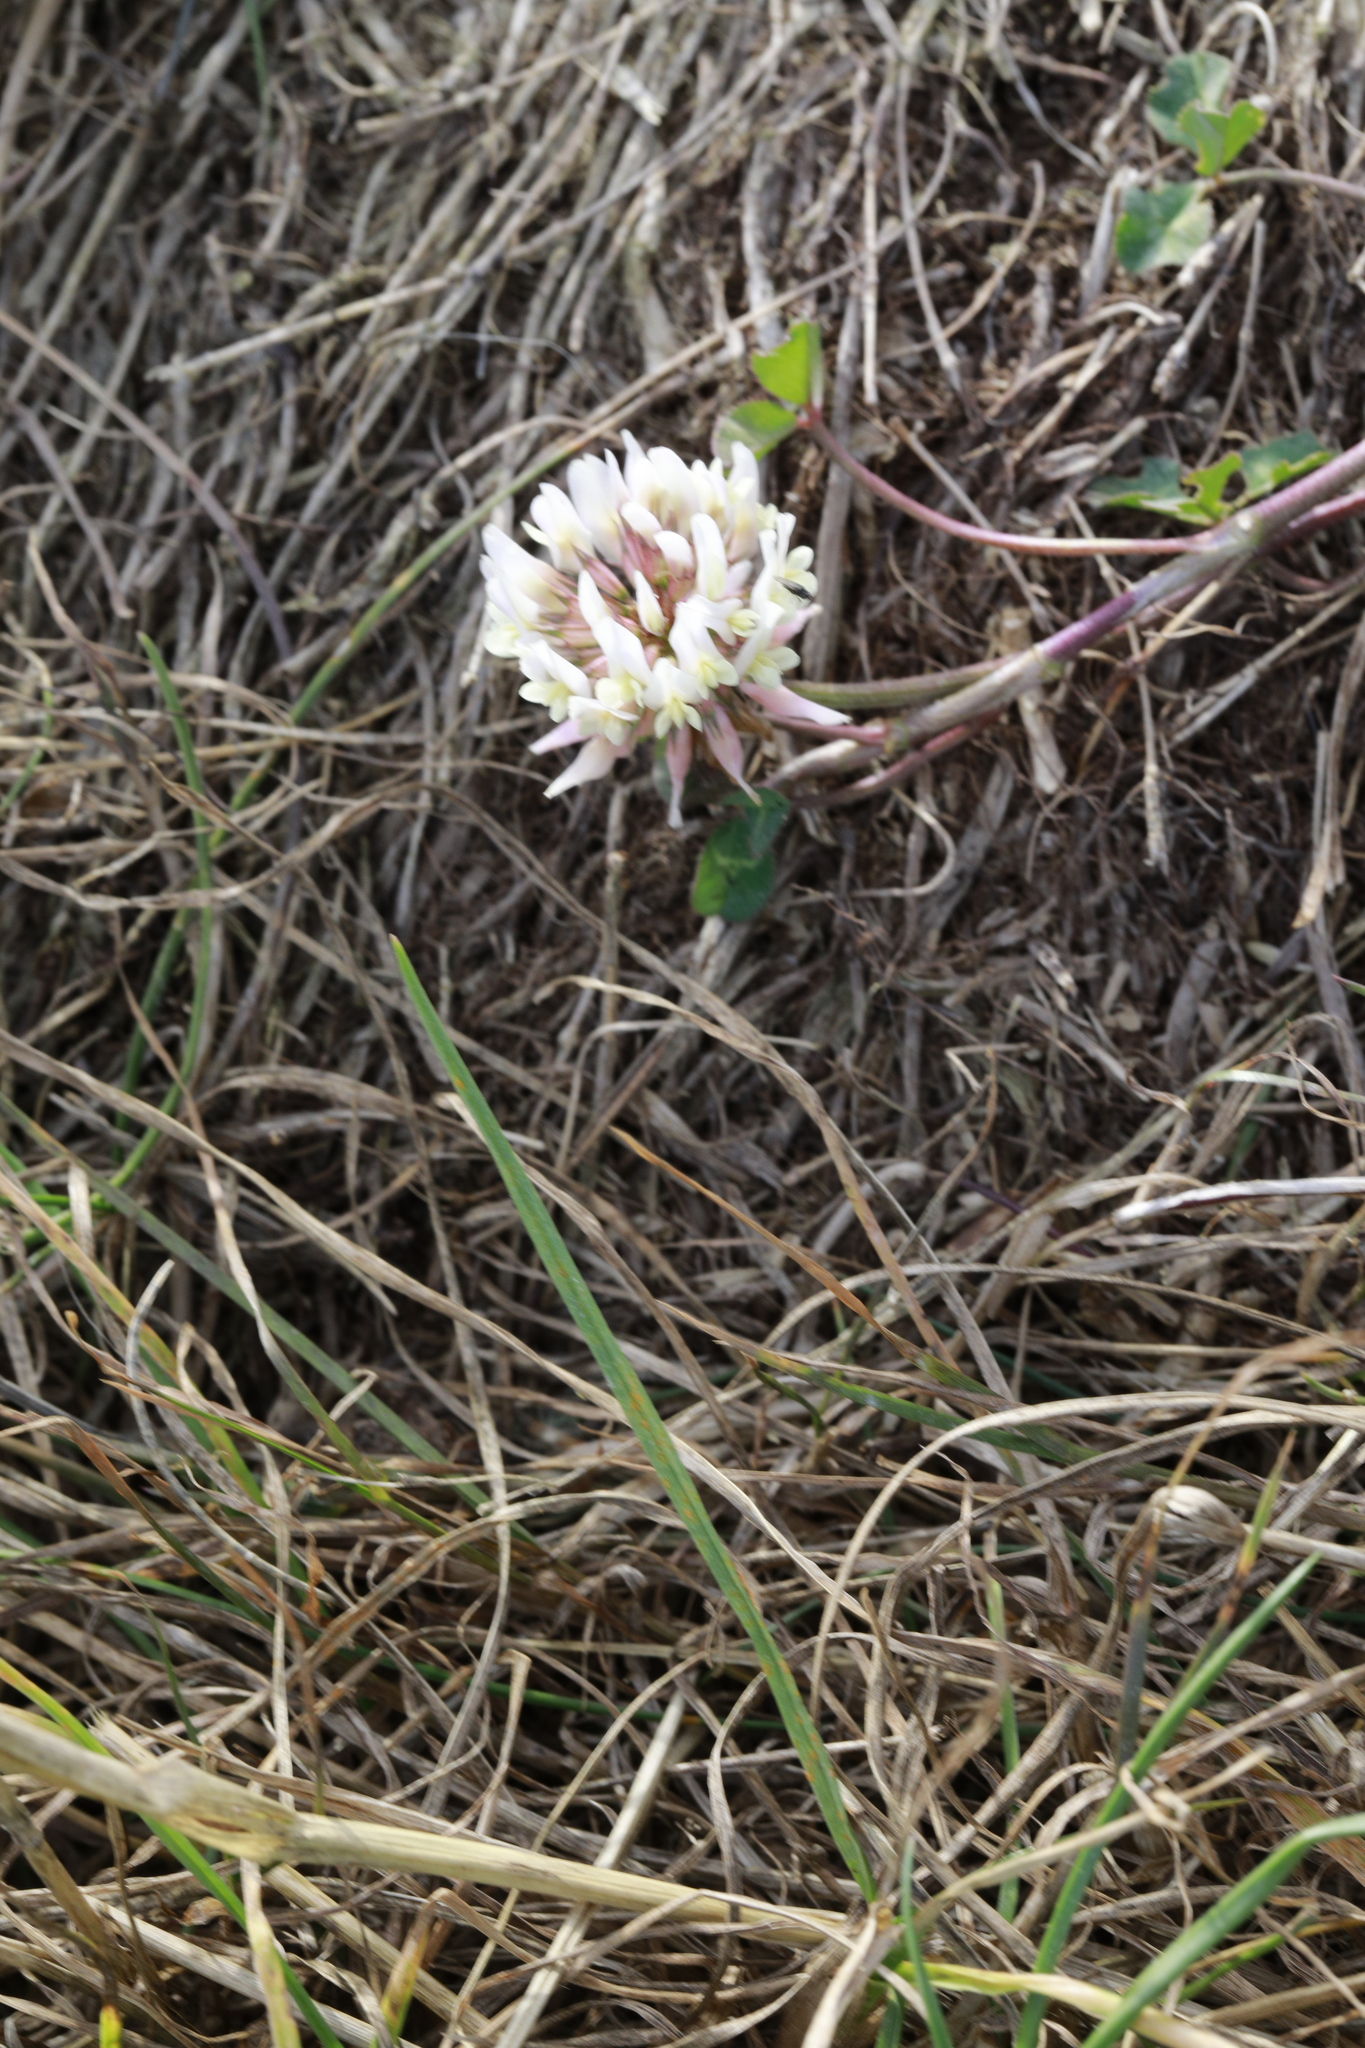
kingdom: Plantae
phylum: Tracheophyta
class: Magnoliopsida
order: Fabales
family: Fabaceae
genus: Trifolium
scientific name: Trifolium repens
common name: White clover
